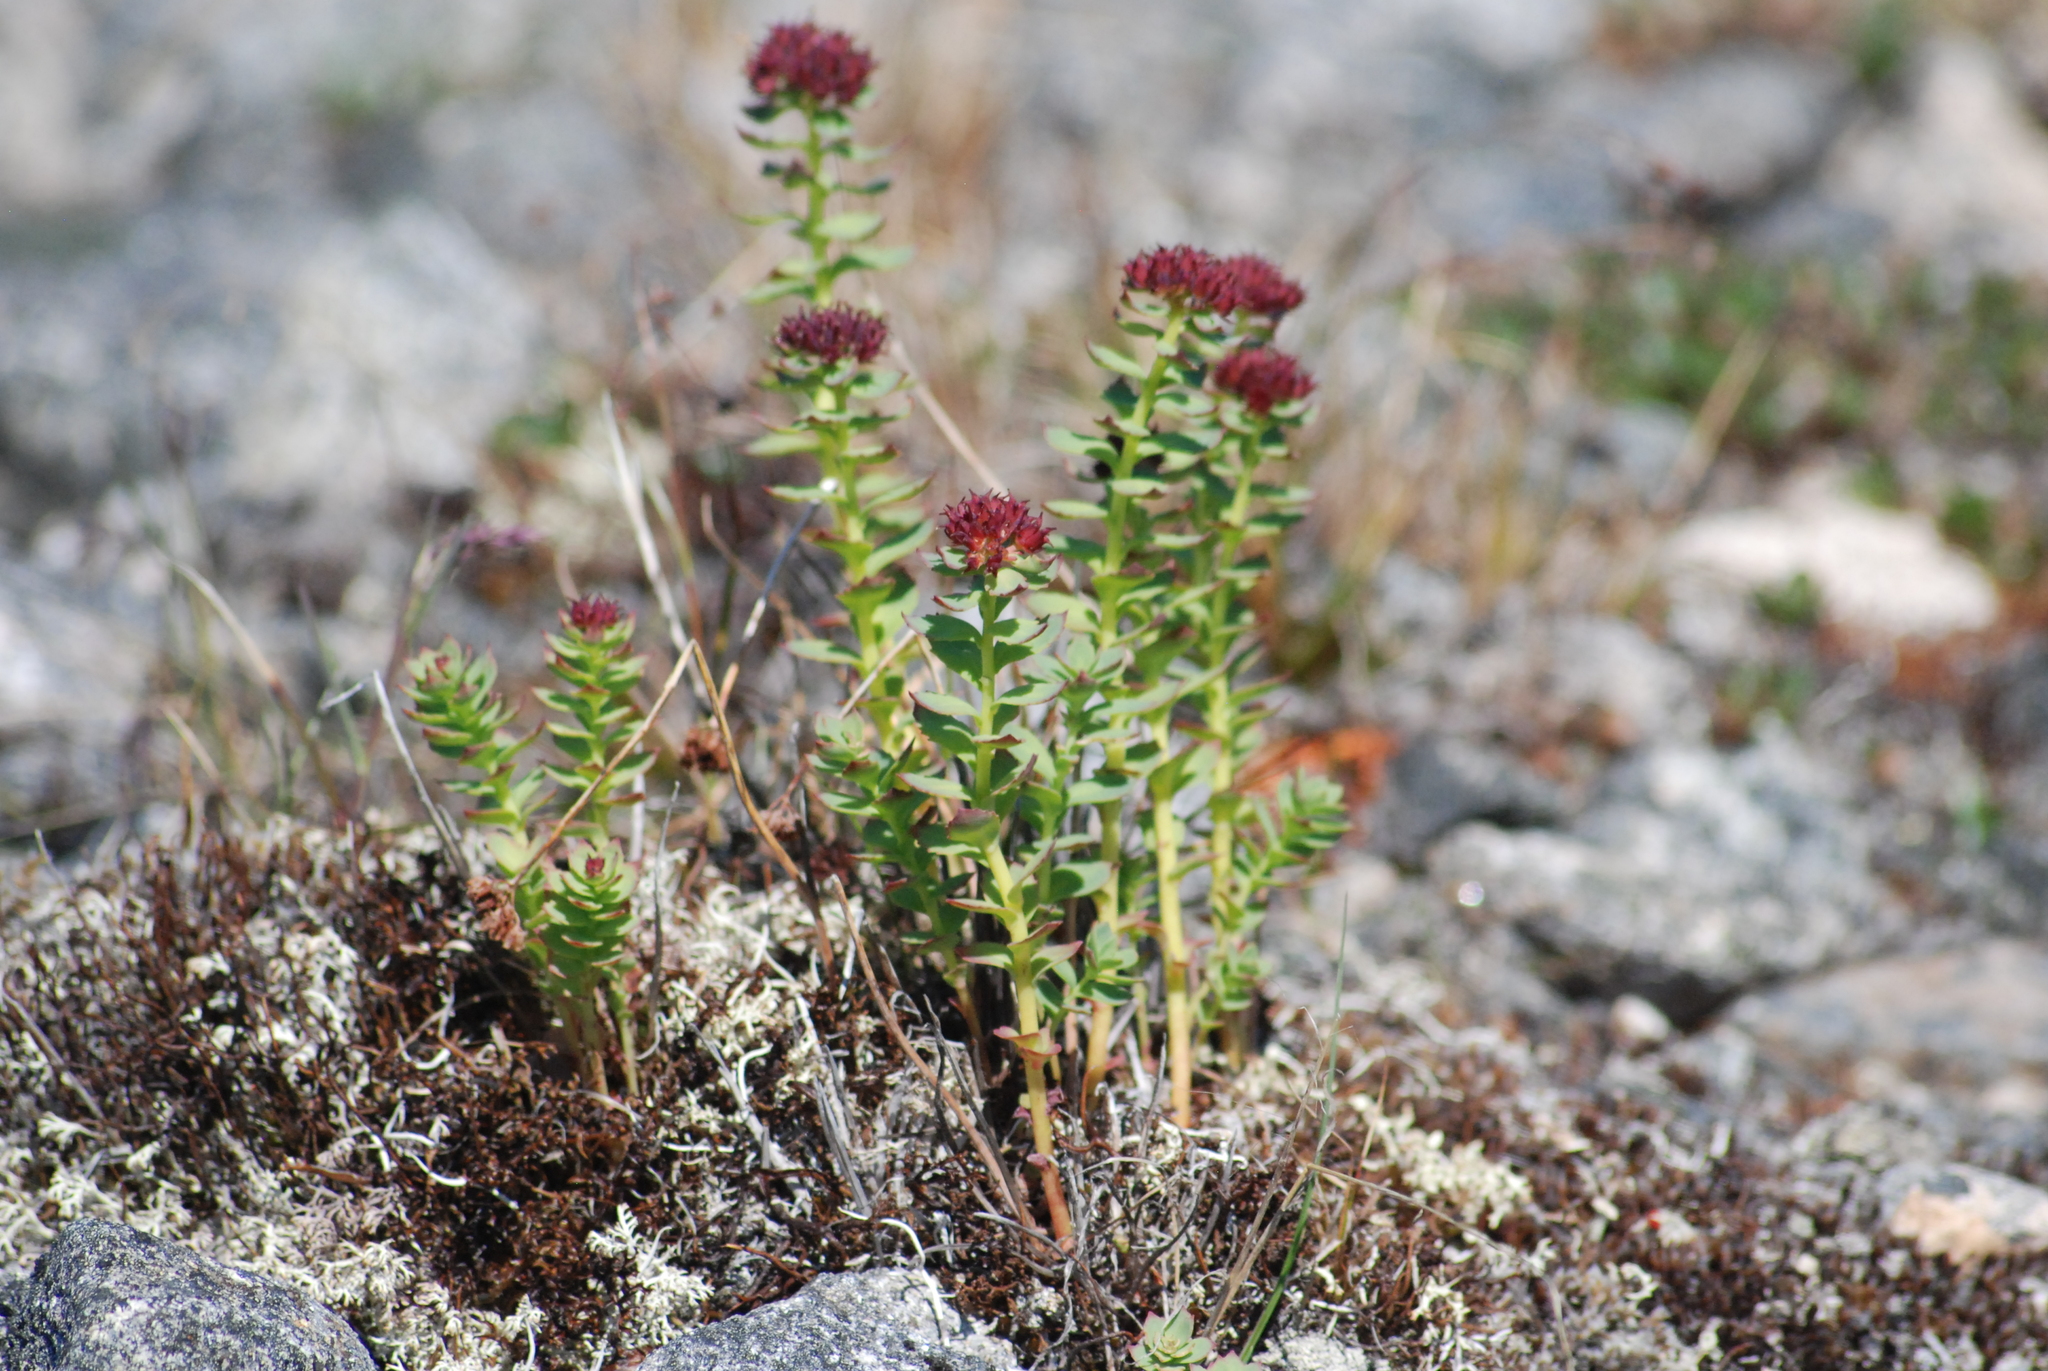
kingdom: Plantae
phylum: Tracheophyta
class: Magnoliopsida
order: Saxifragales
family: Crassulaceae
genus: Rhodiola
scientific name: Rhodiola integrifolia
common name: Western roseroot
